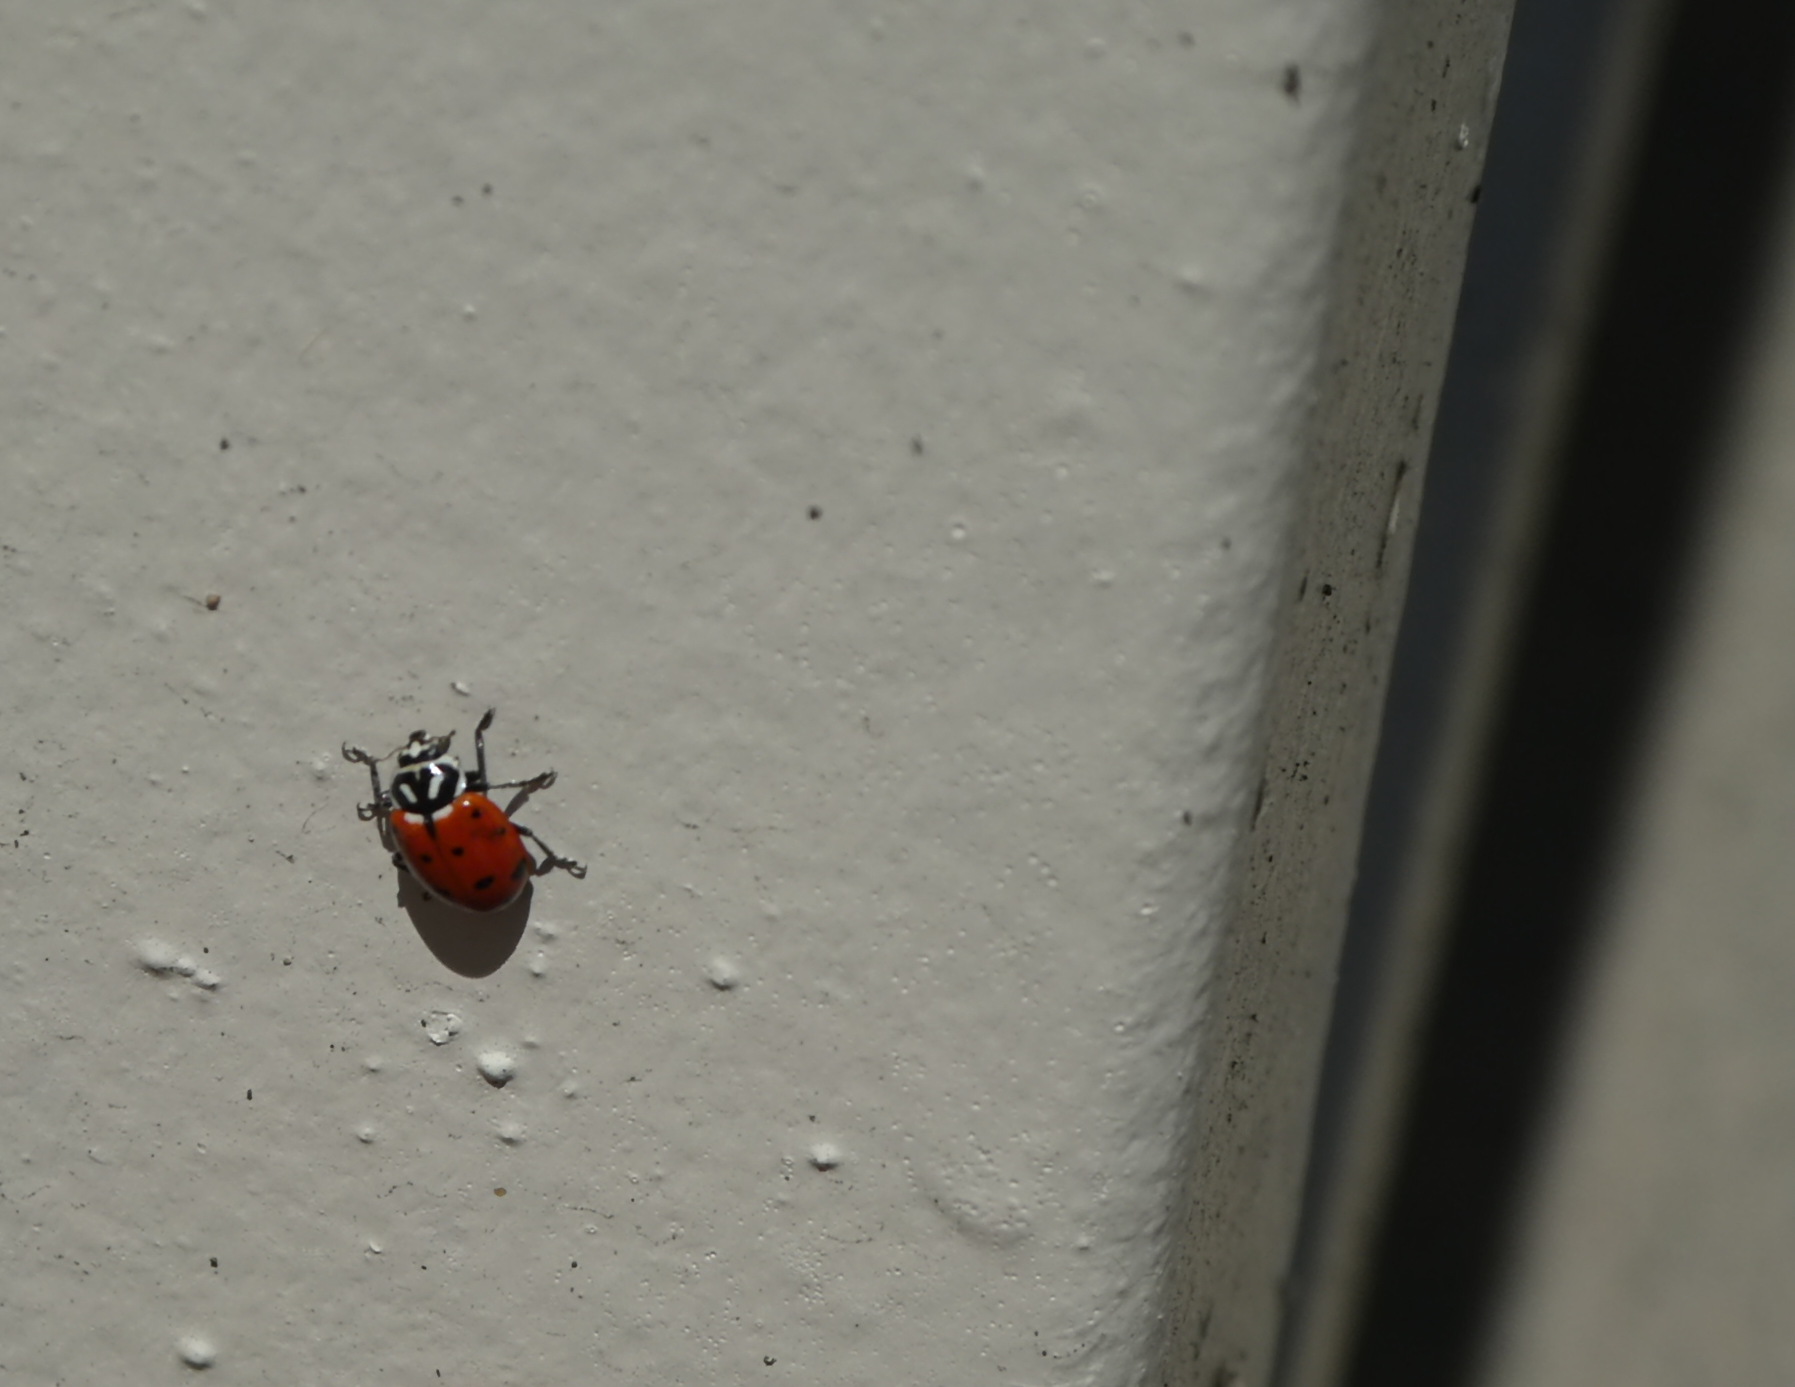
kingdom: Animalia
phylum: Arthropoda
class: Insecta
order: Coleoptera
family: Coccinellidae
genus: Hippodamia
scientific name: Hippodamia convergens
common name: Convergent lady beetle
